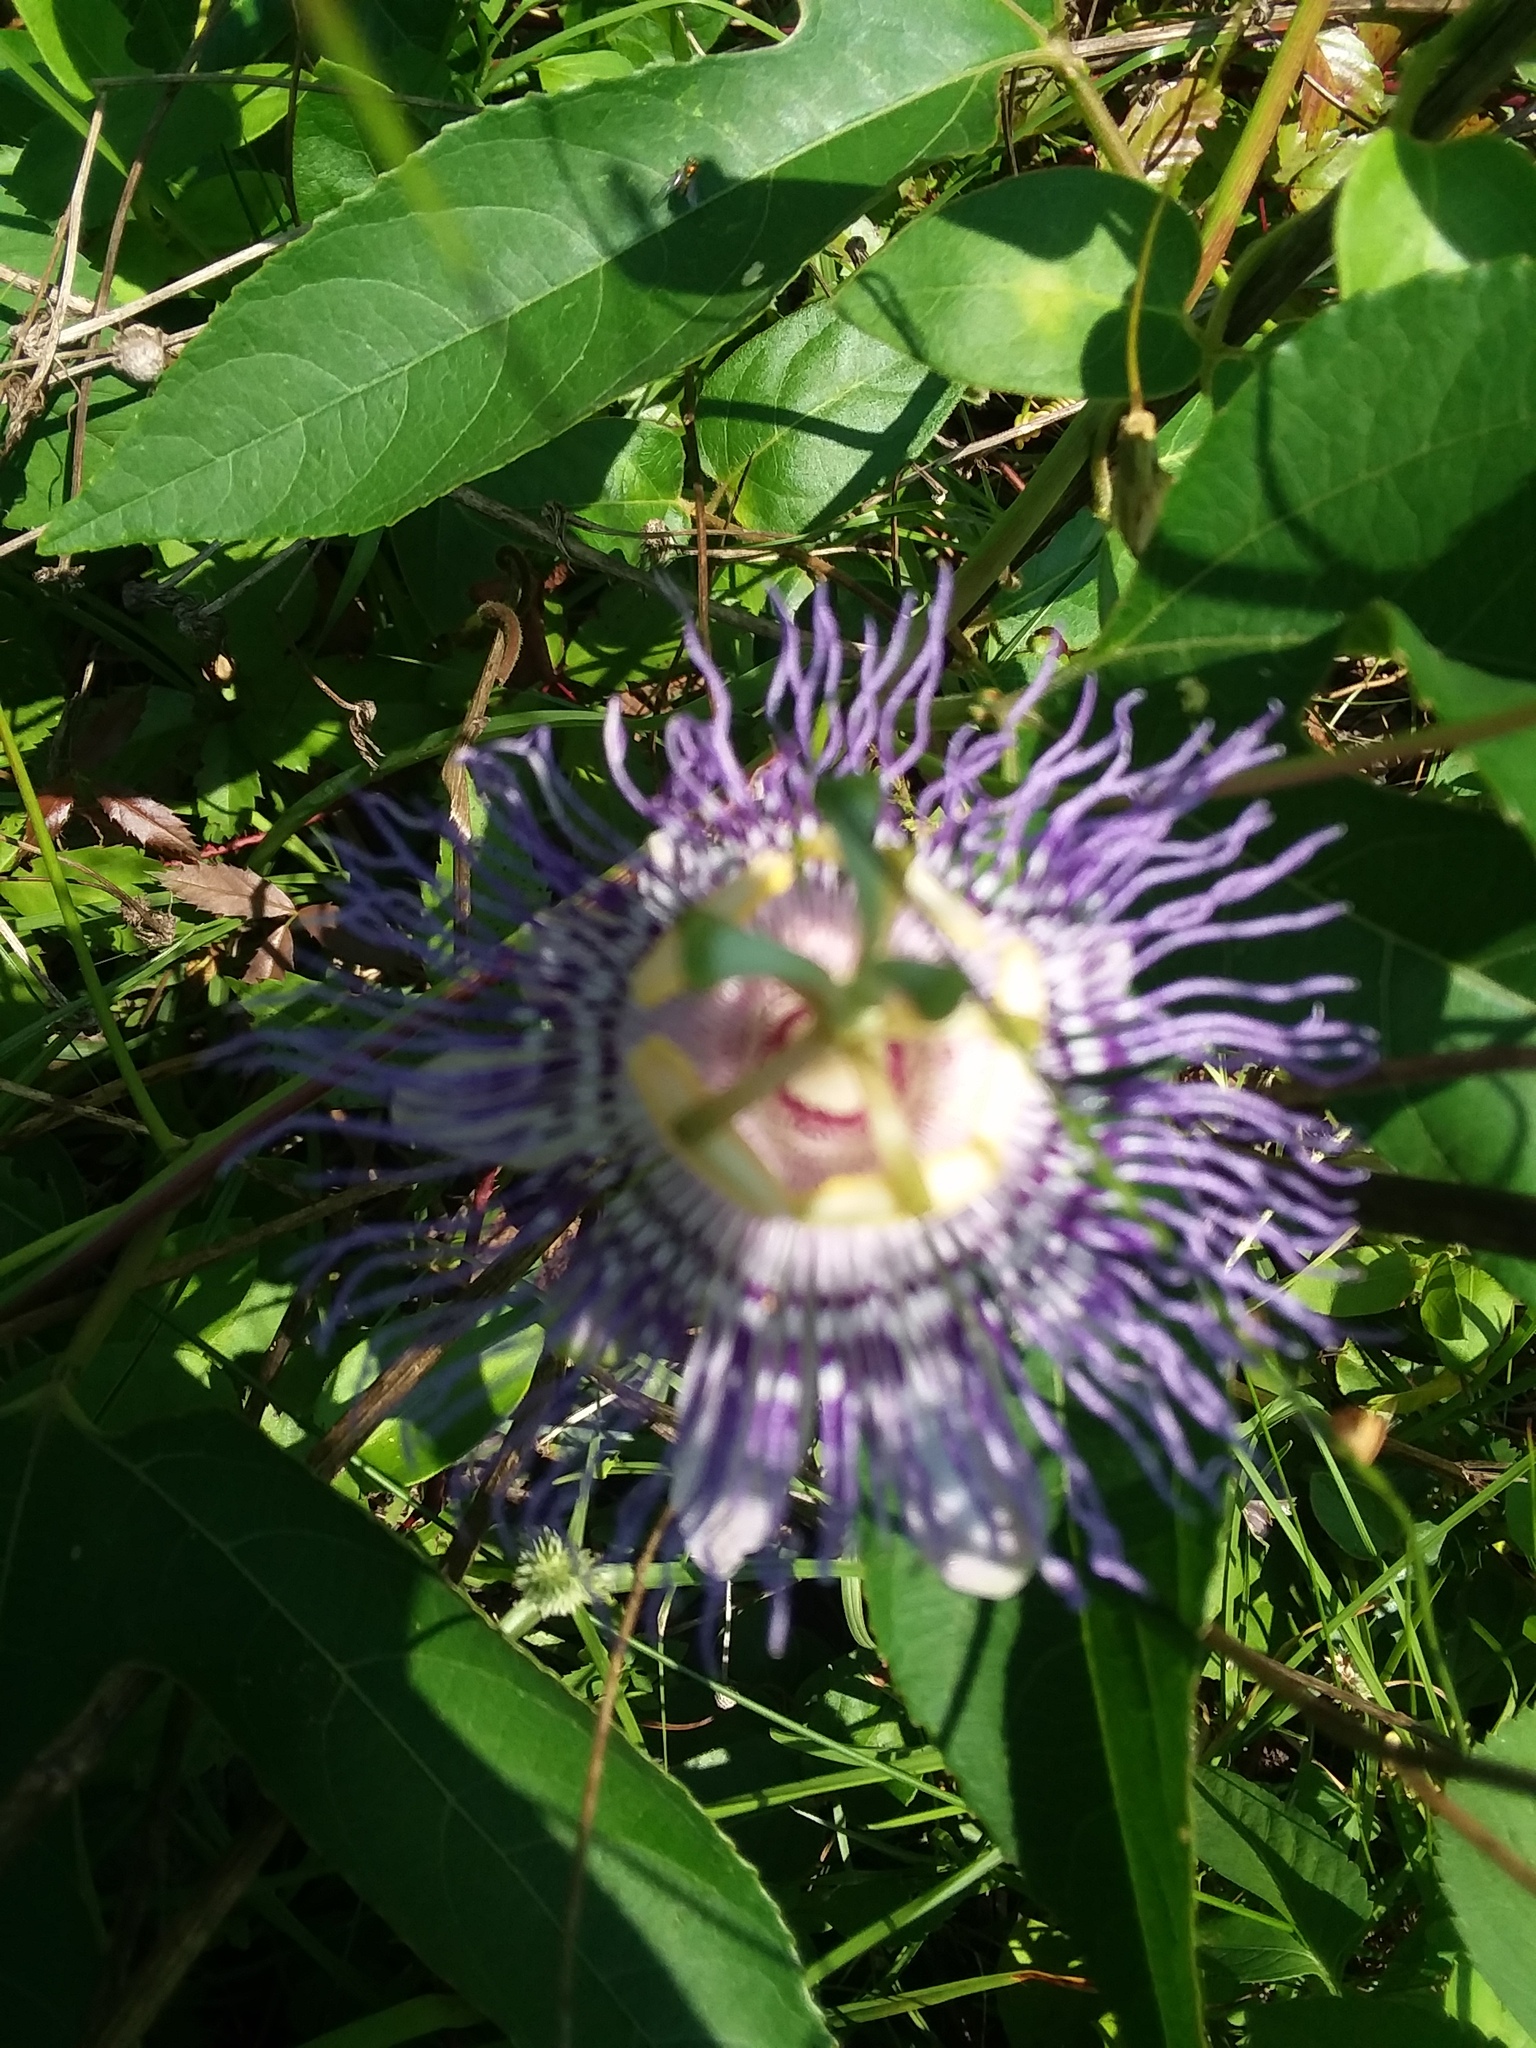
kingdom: Plantae
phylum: Tracheophyta
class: Magnoliopsida
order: Malpighiales
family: Passifloraceae
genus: Passiflora
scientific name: Passiflora incarnata
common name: Apricot-vine
